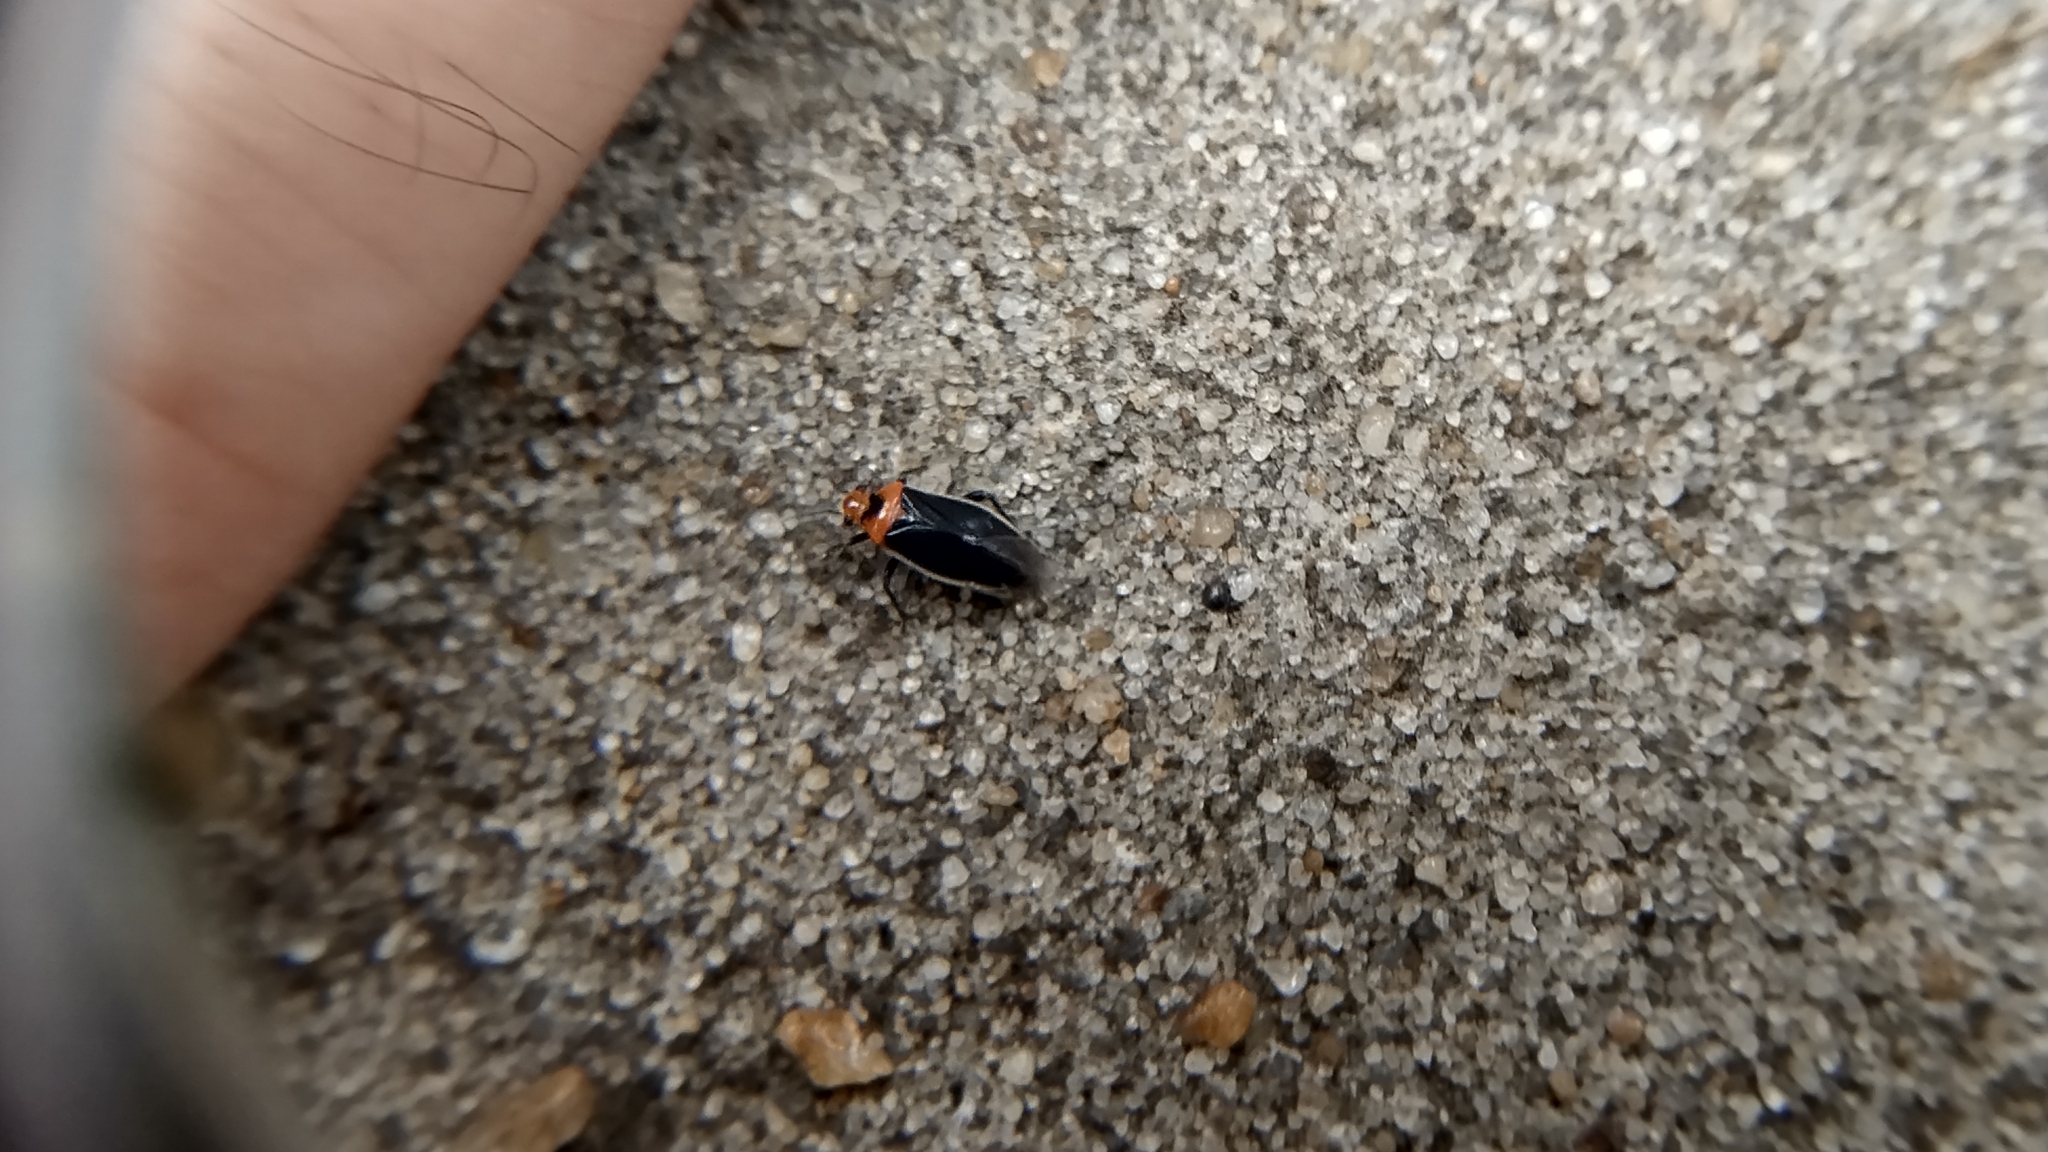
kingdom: Animalia
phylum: Arthropoda
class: Insecta
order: Hemiptera
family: Miridae
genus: Aspidobothrys
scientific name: Aspidobothrys ruficeps
